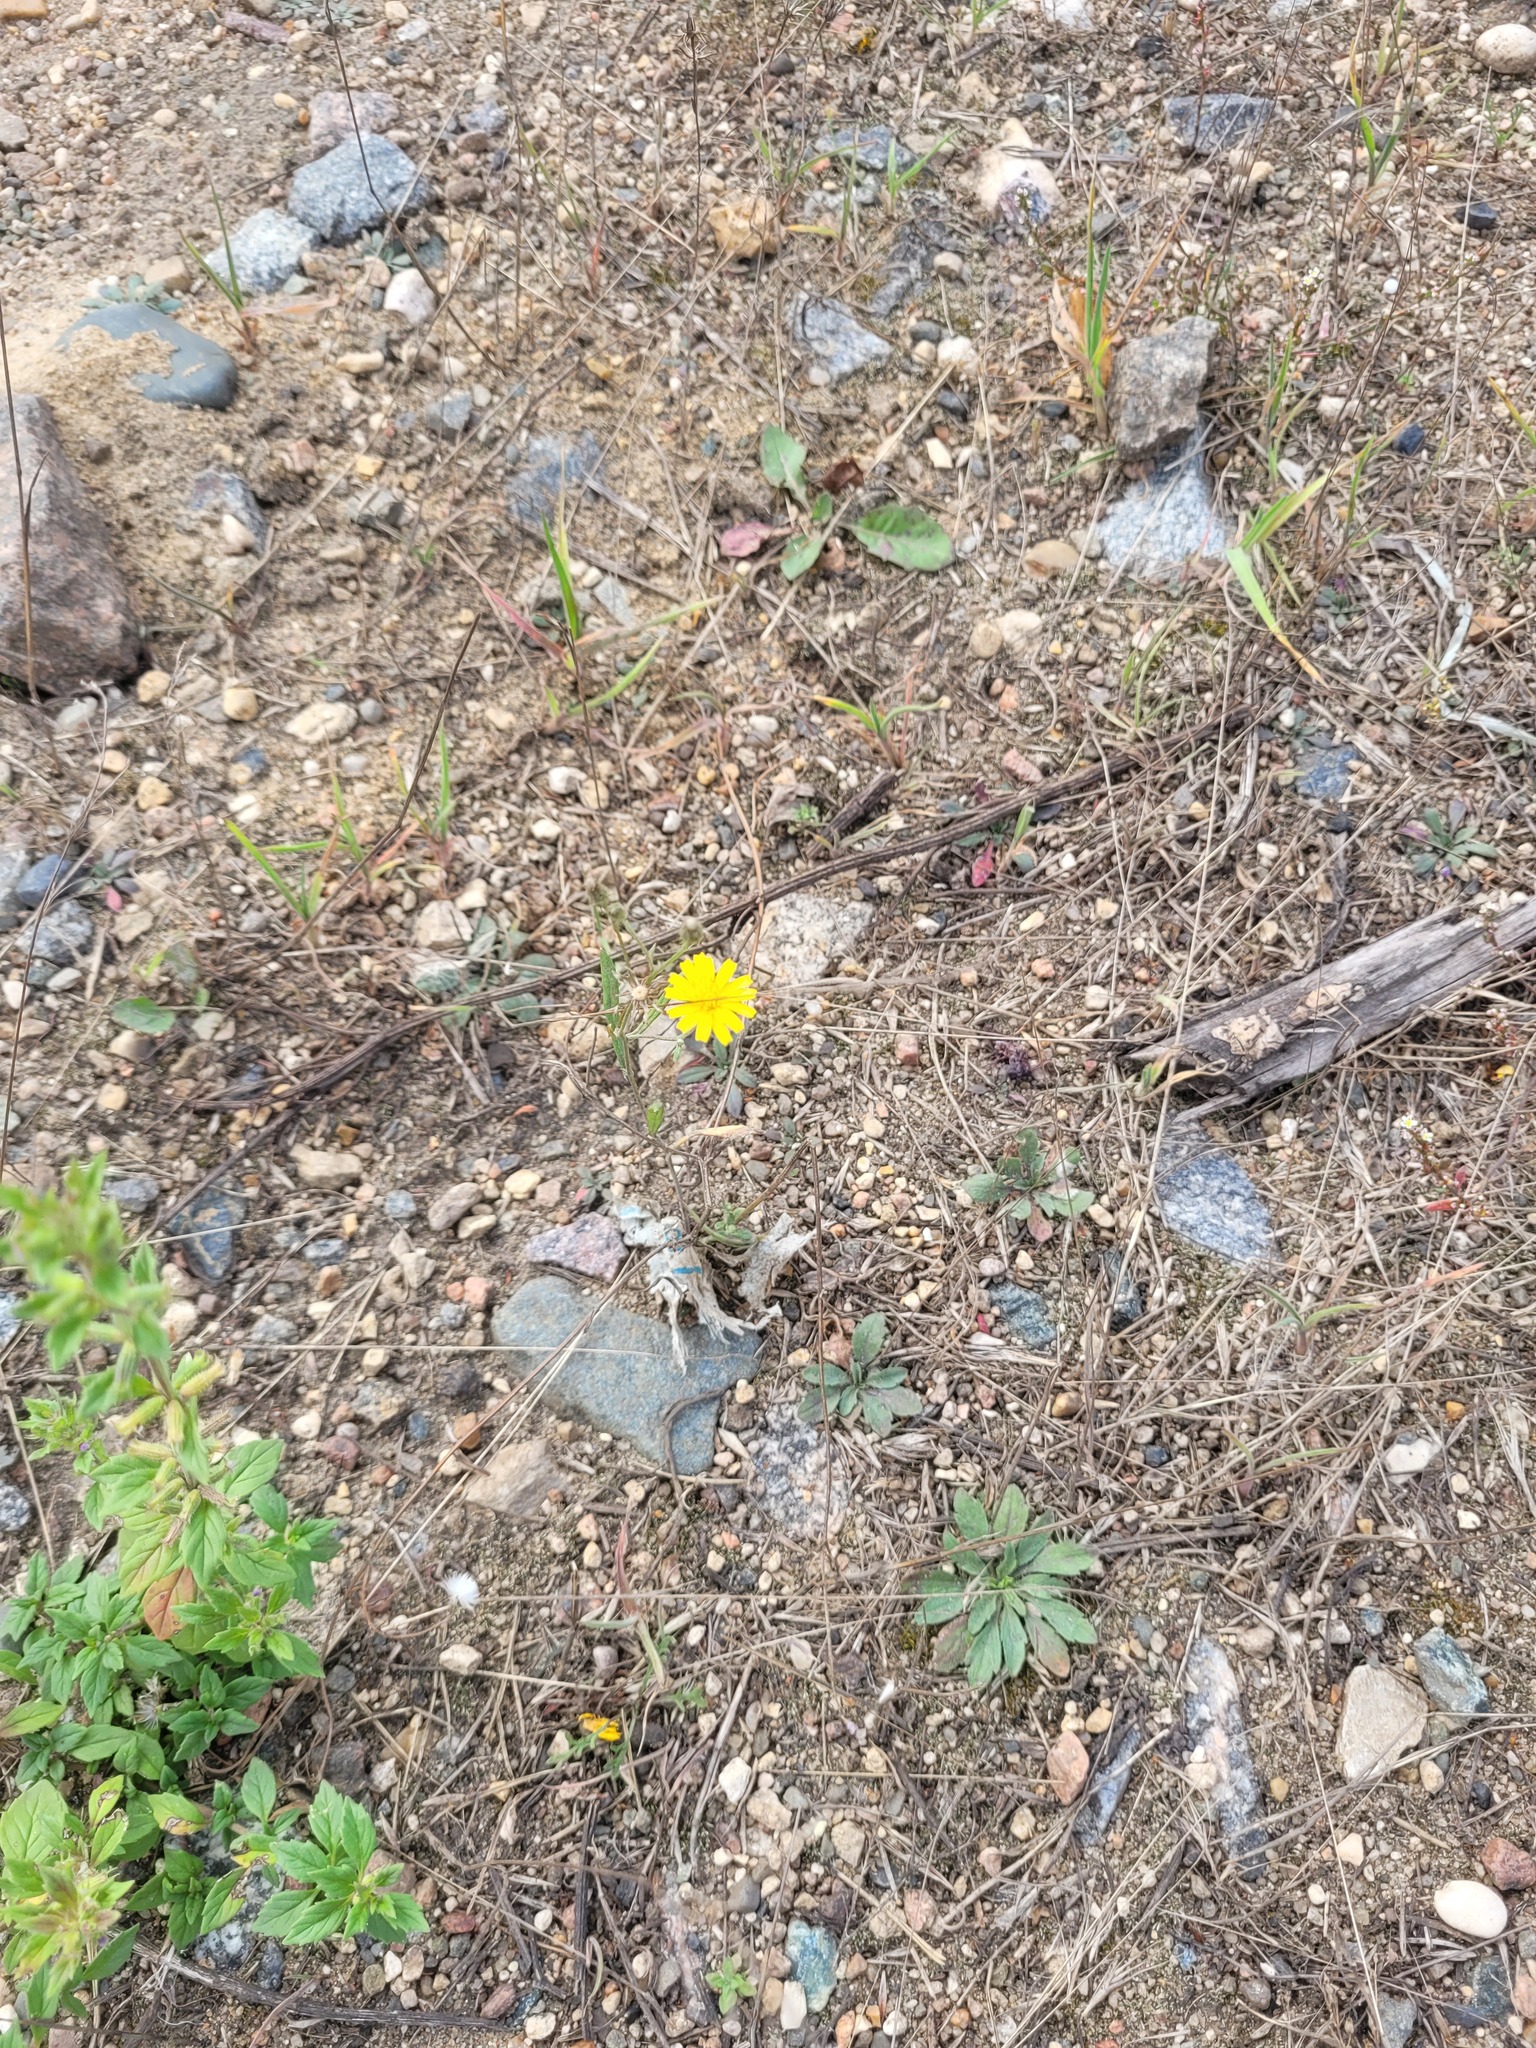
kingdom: Plantae
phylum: Tracheophyta
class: Magnoliopsida
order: Asterales
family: Asteraceae
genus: Crepis
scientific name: Crepis tectorum
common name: Narrow-leaved hawk's-beard
